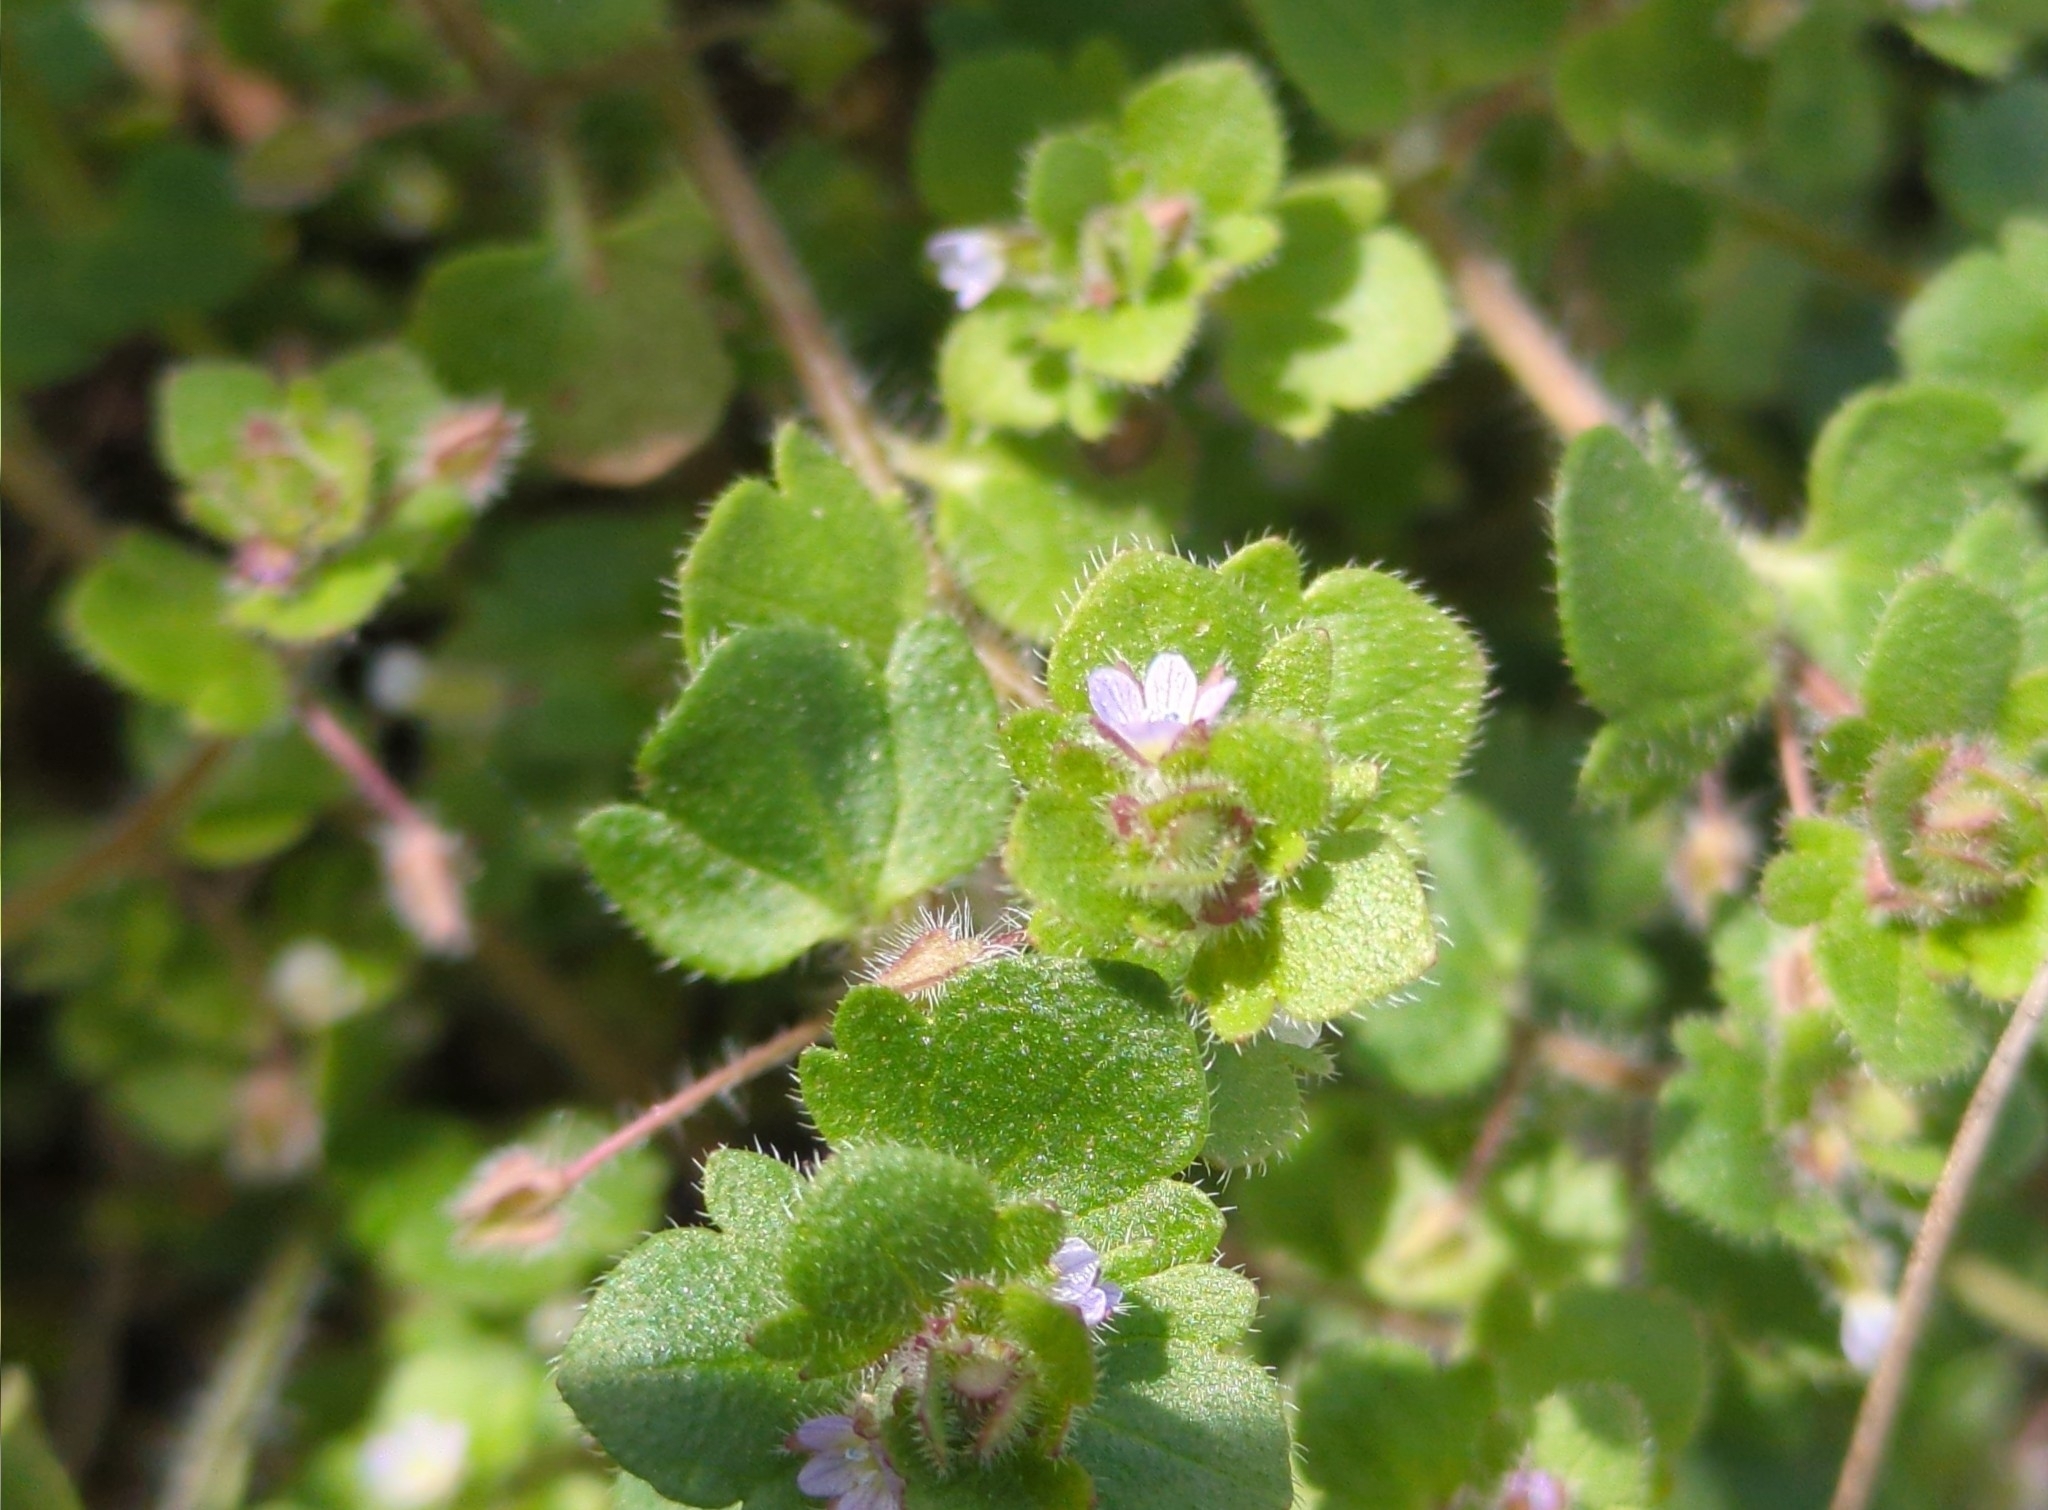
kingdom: Plantae
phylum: Tracheophyta
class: Magnoliopsida
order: Lamiales
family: Plantaginaceae
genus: Veronica
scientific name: Veronica sublobata
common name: False ivy-leaved speedwell
